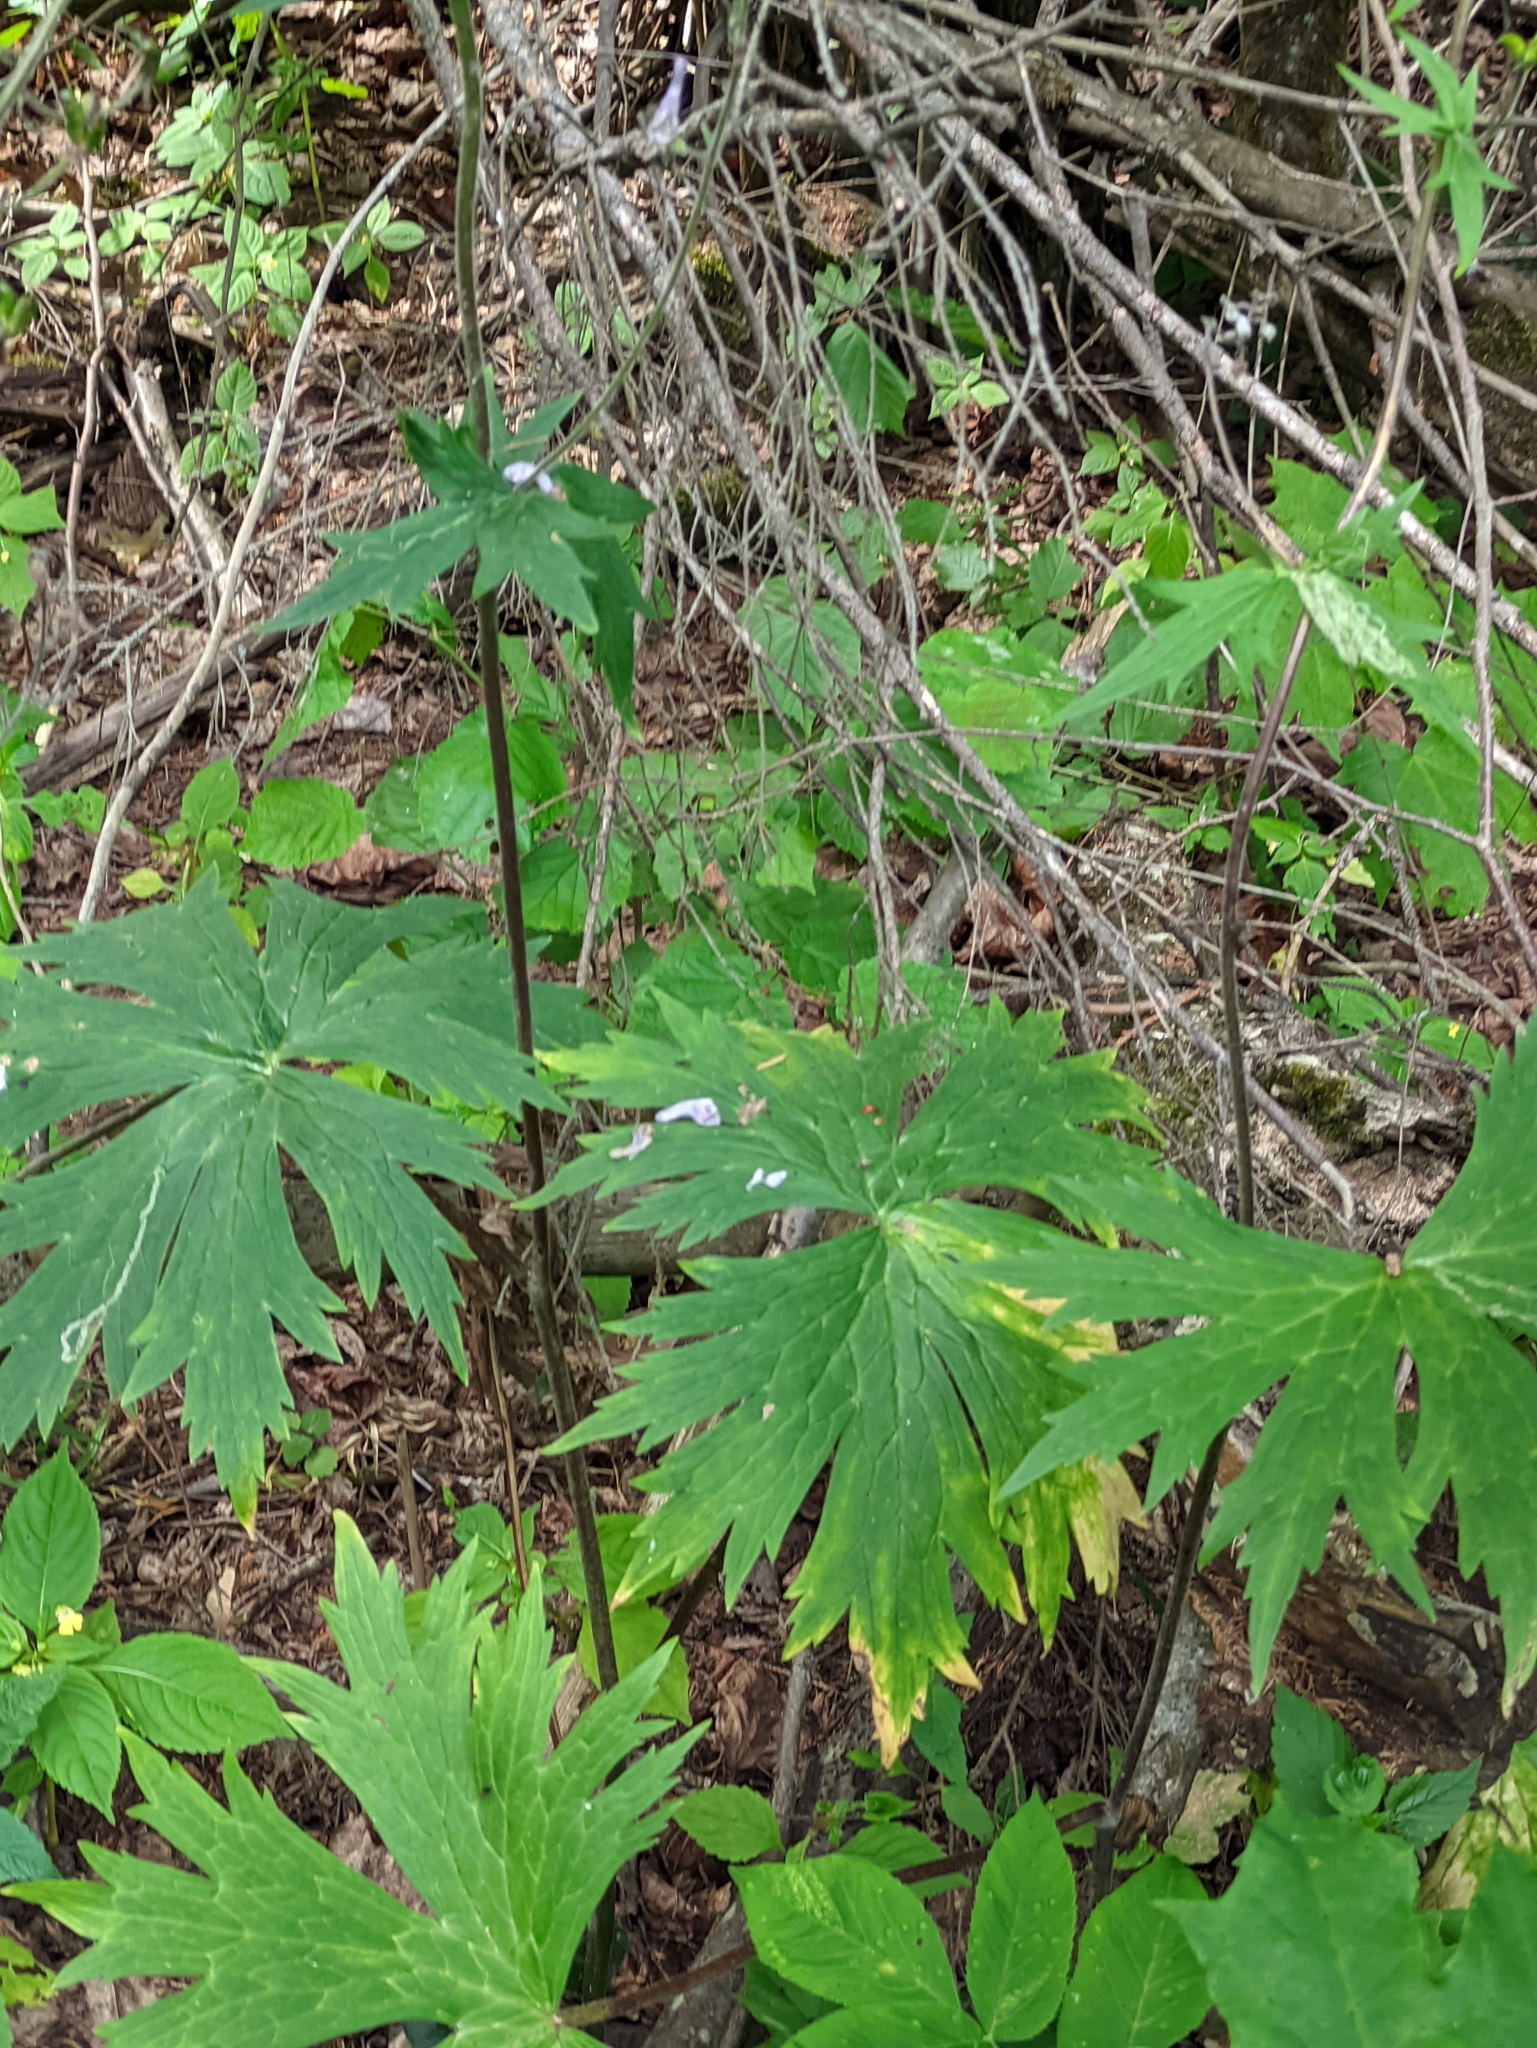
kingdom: Plantae
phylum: Tracheophyta
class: Magnoliopsida
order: Ranunculales
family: Ranunculaceae
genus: Aconitum
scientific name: Aconitum septentrionale
